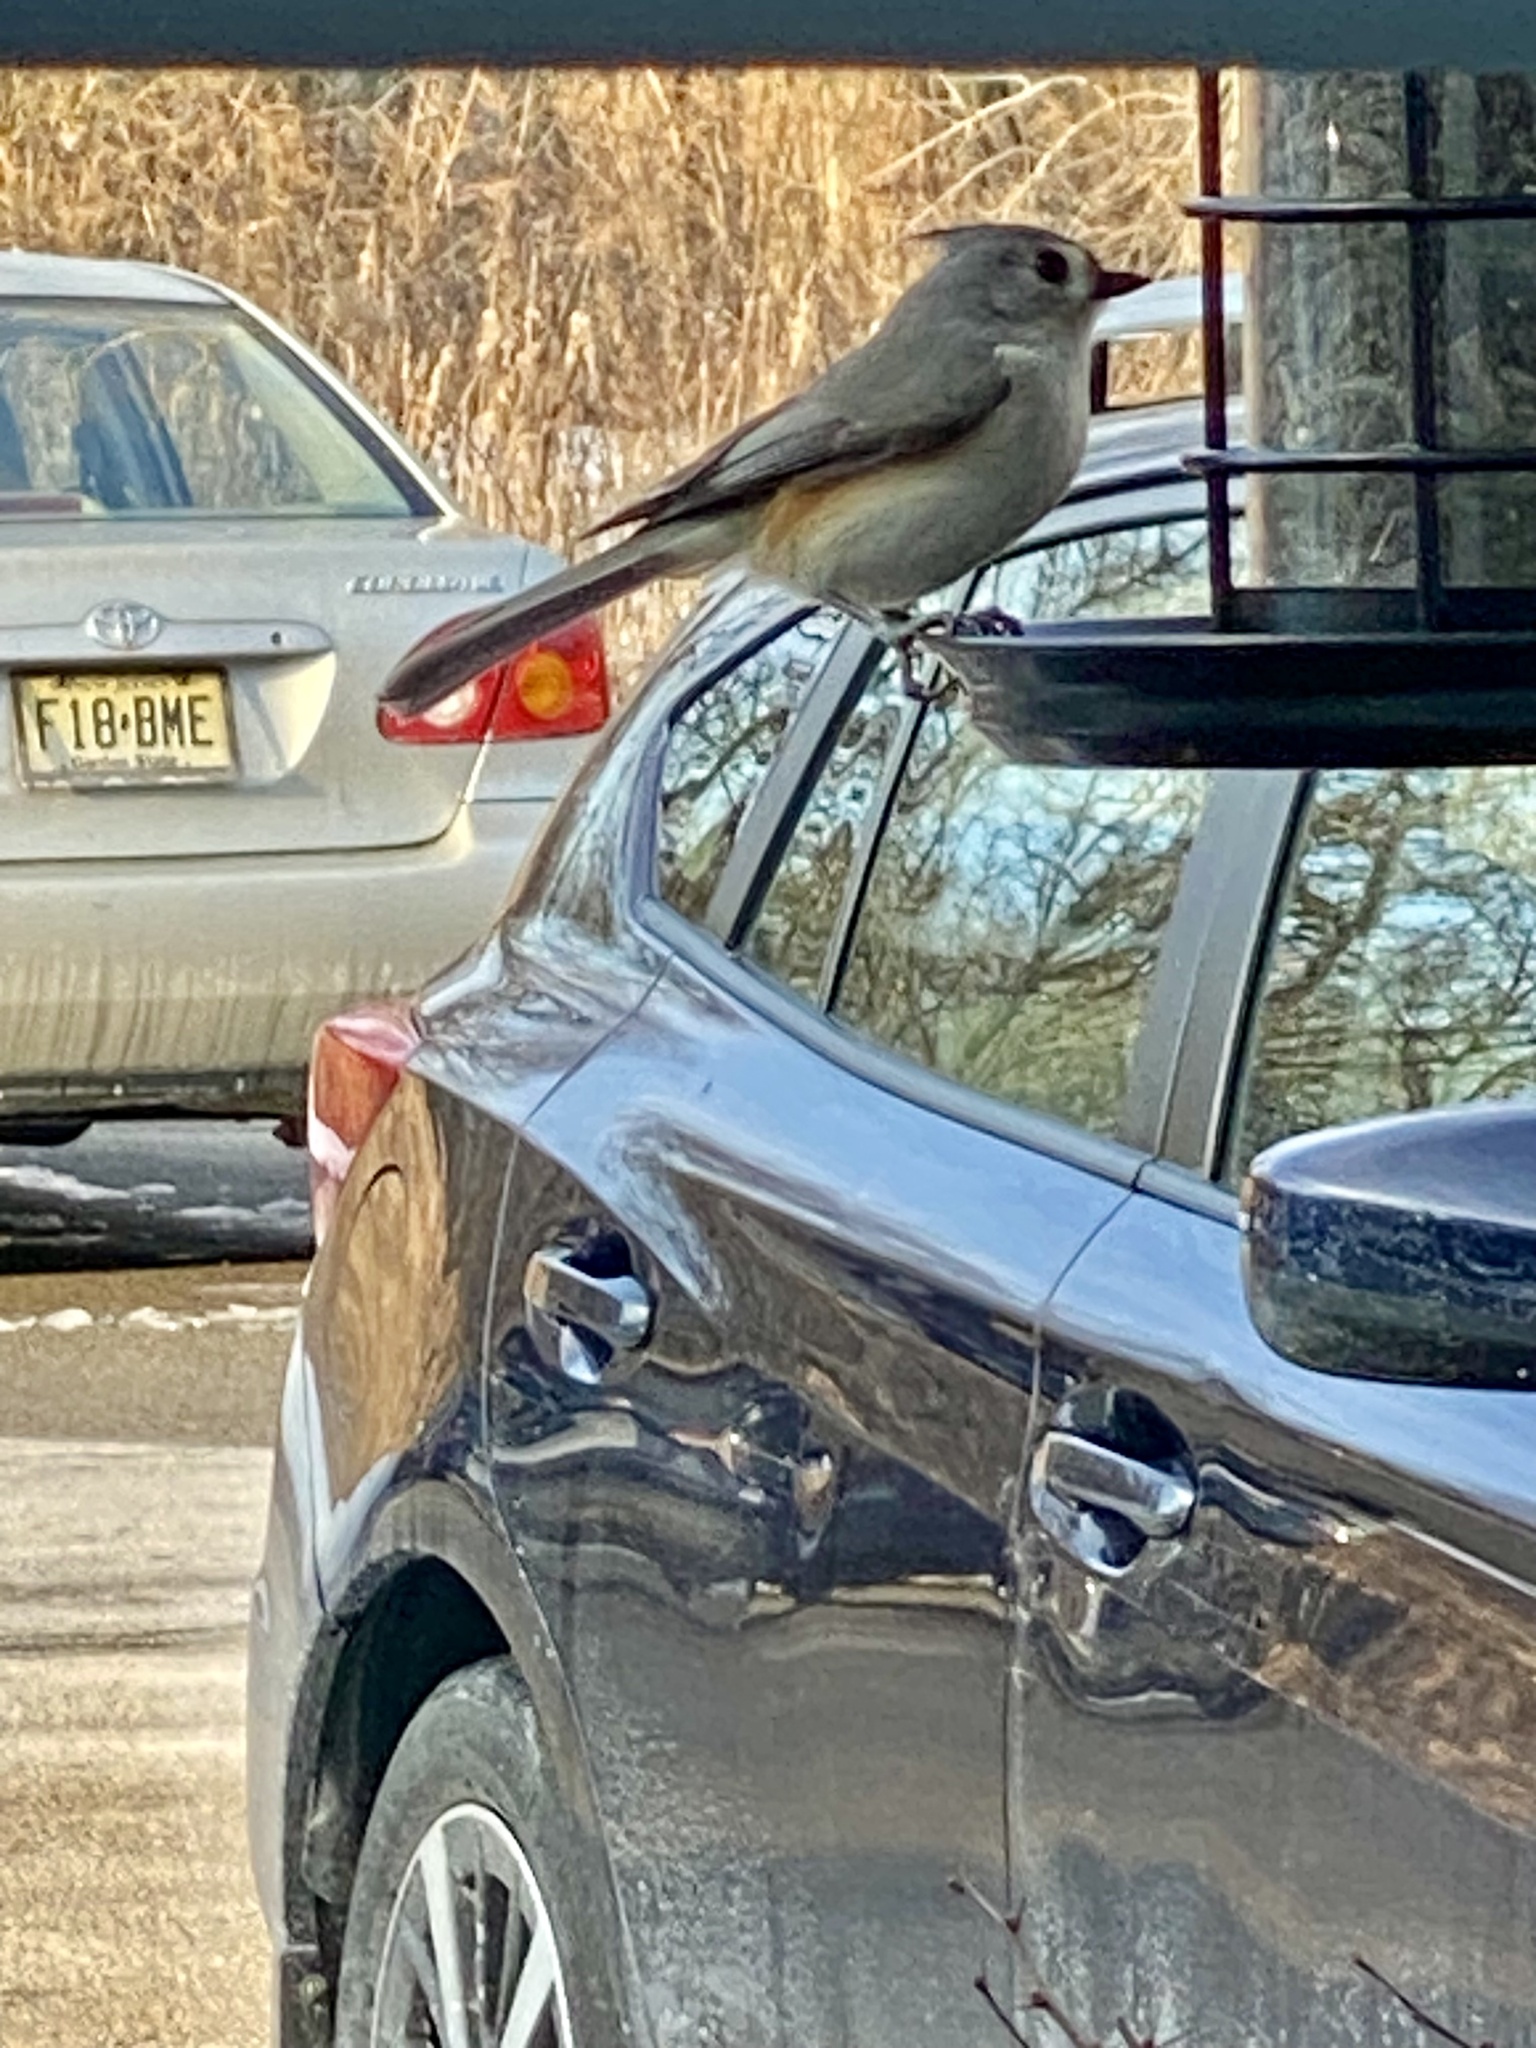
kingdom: Animalia
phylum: Chordata
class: Aves
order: Passeriformes
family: Paridae
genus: Baeolophus
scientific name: Baeolophus bicolor
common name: Tufted titmouse
